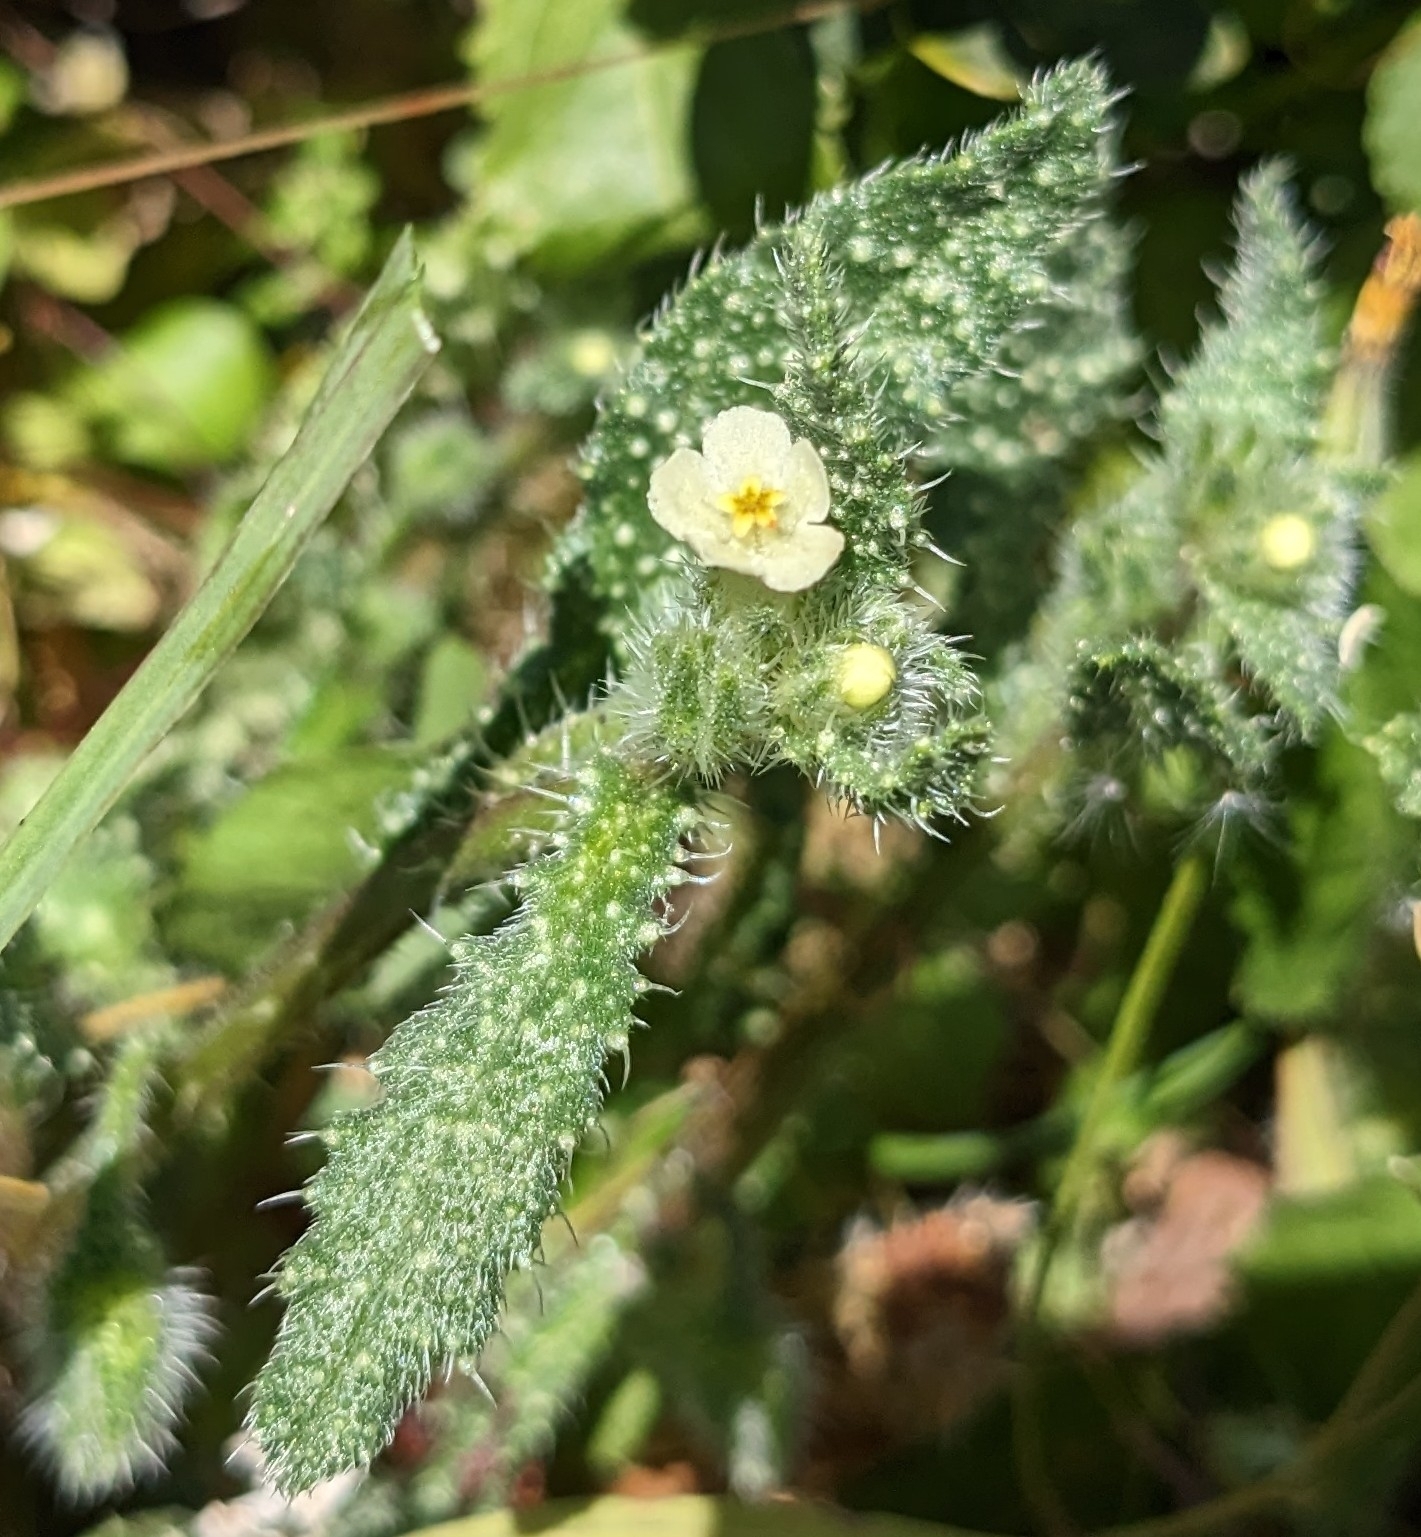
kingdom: Plantae
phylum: Tracheophyta
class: Magnoliopsida
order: Boraginales
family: Boraginaceae
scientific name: Boraginaceae
